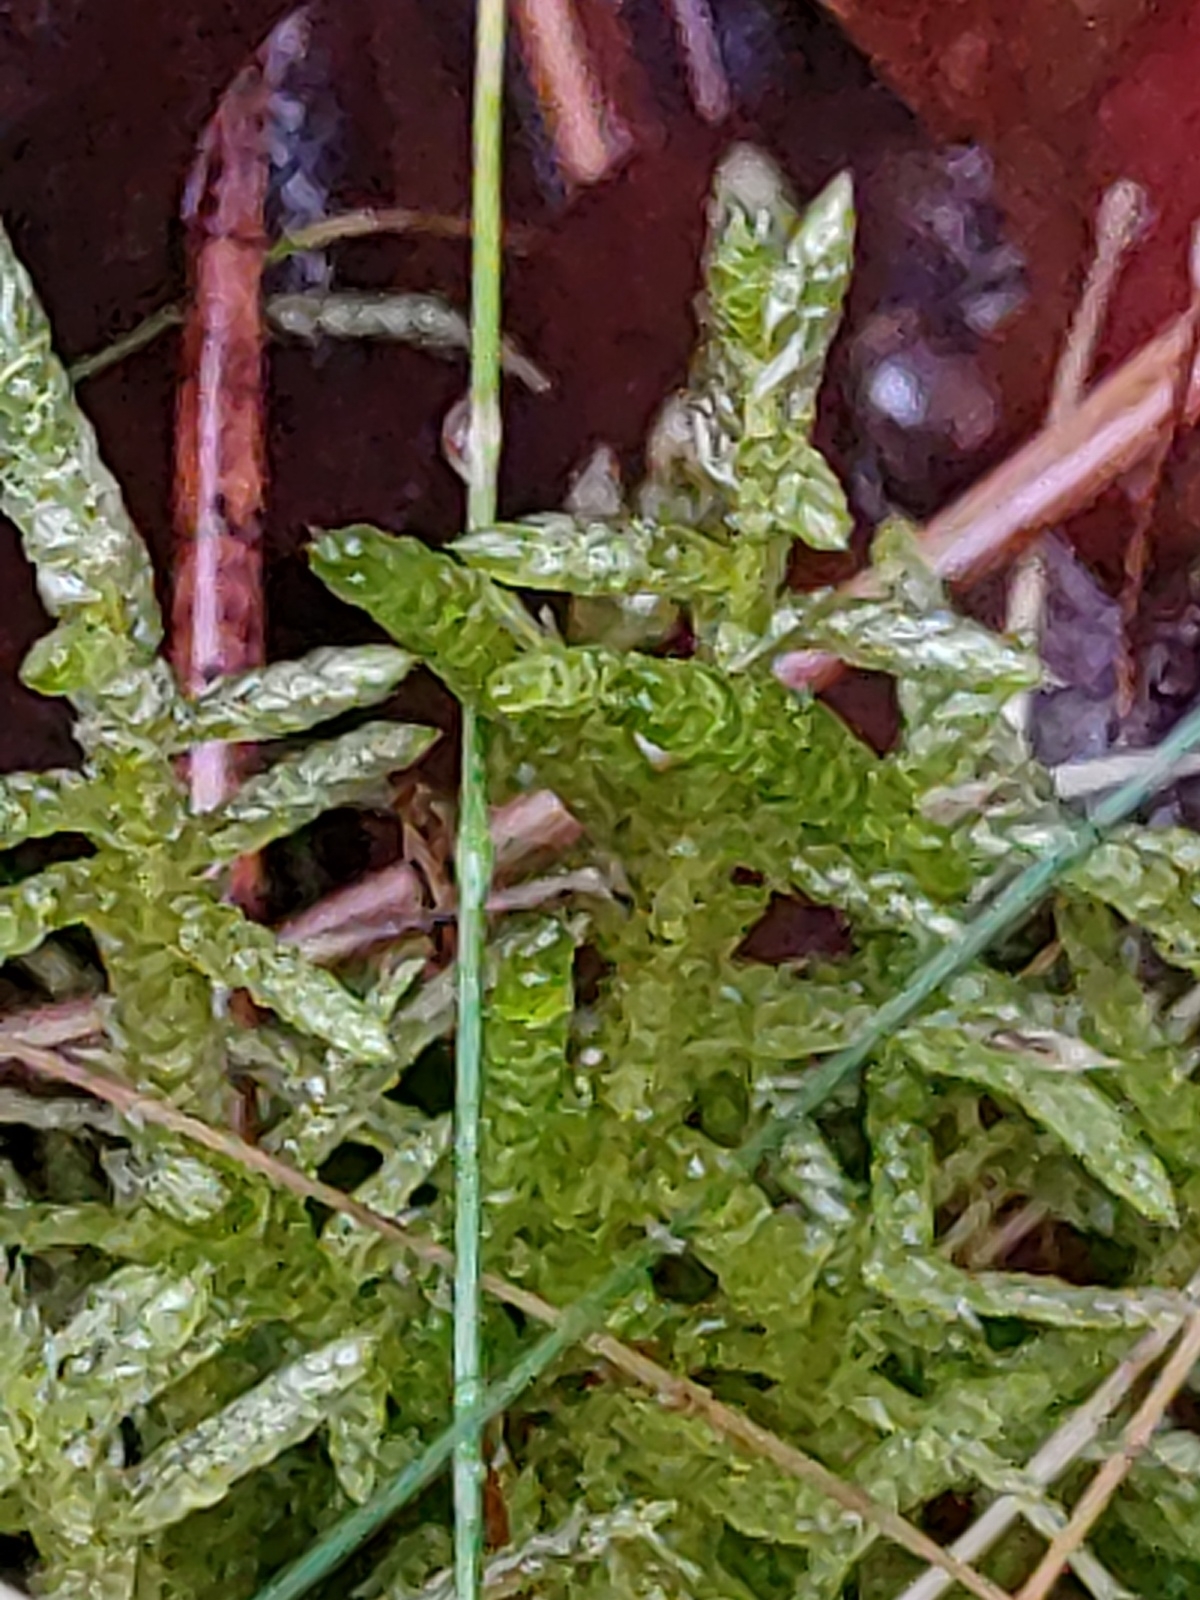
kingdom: Plantae
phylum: Bryophyta
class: Bryopsida
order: Hypnales
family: Brachytheciaceae
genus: Pseudoscleropodium
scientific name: Pseudoscleropodium purum
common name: Neat feather-moss
